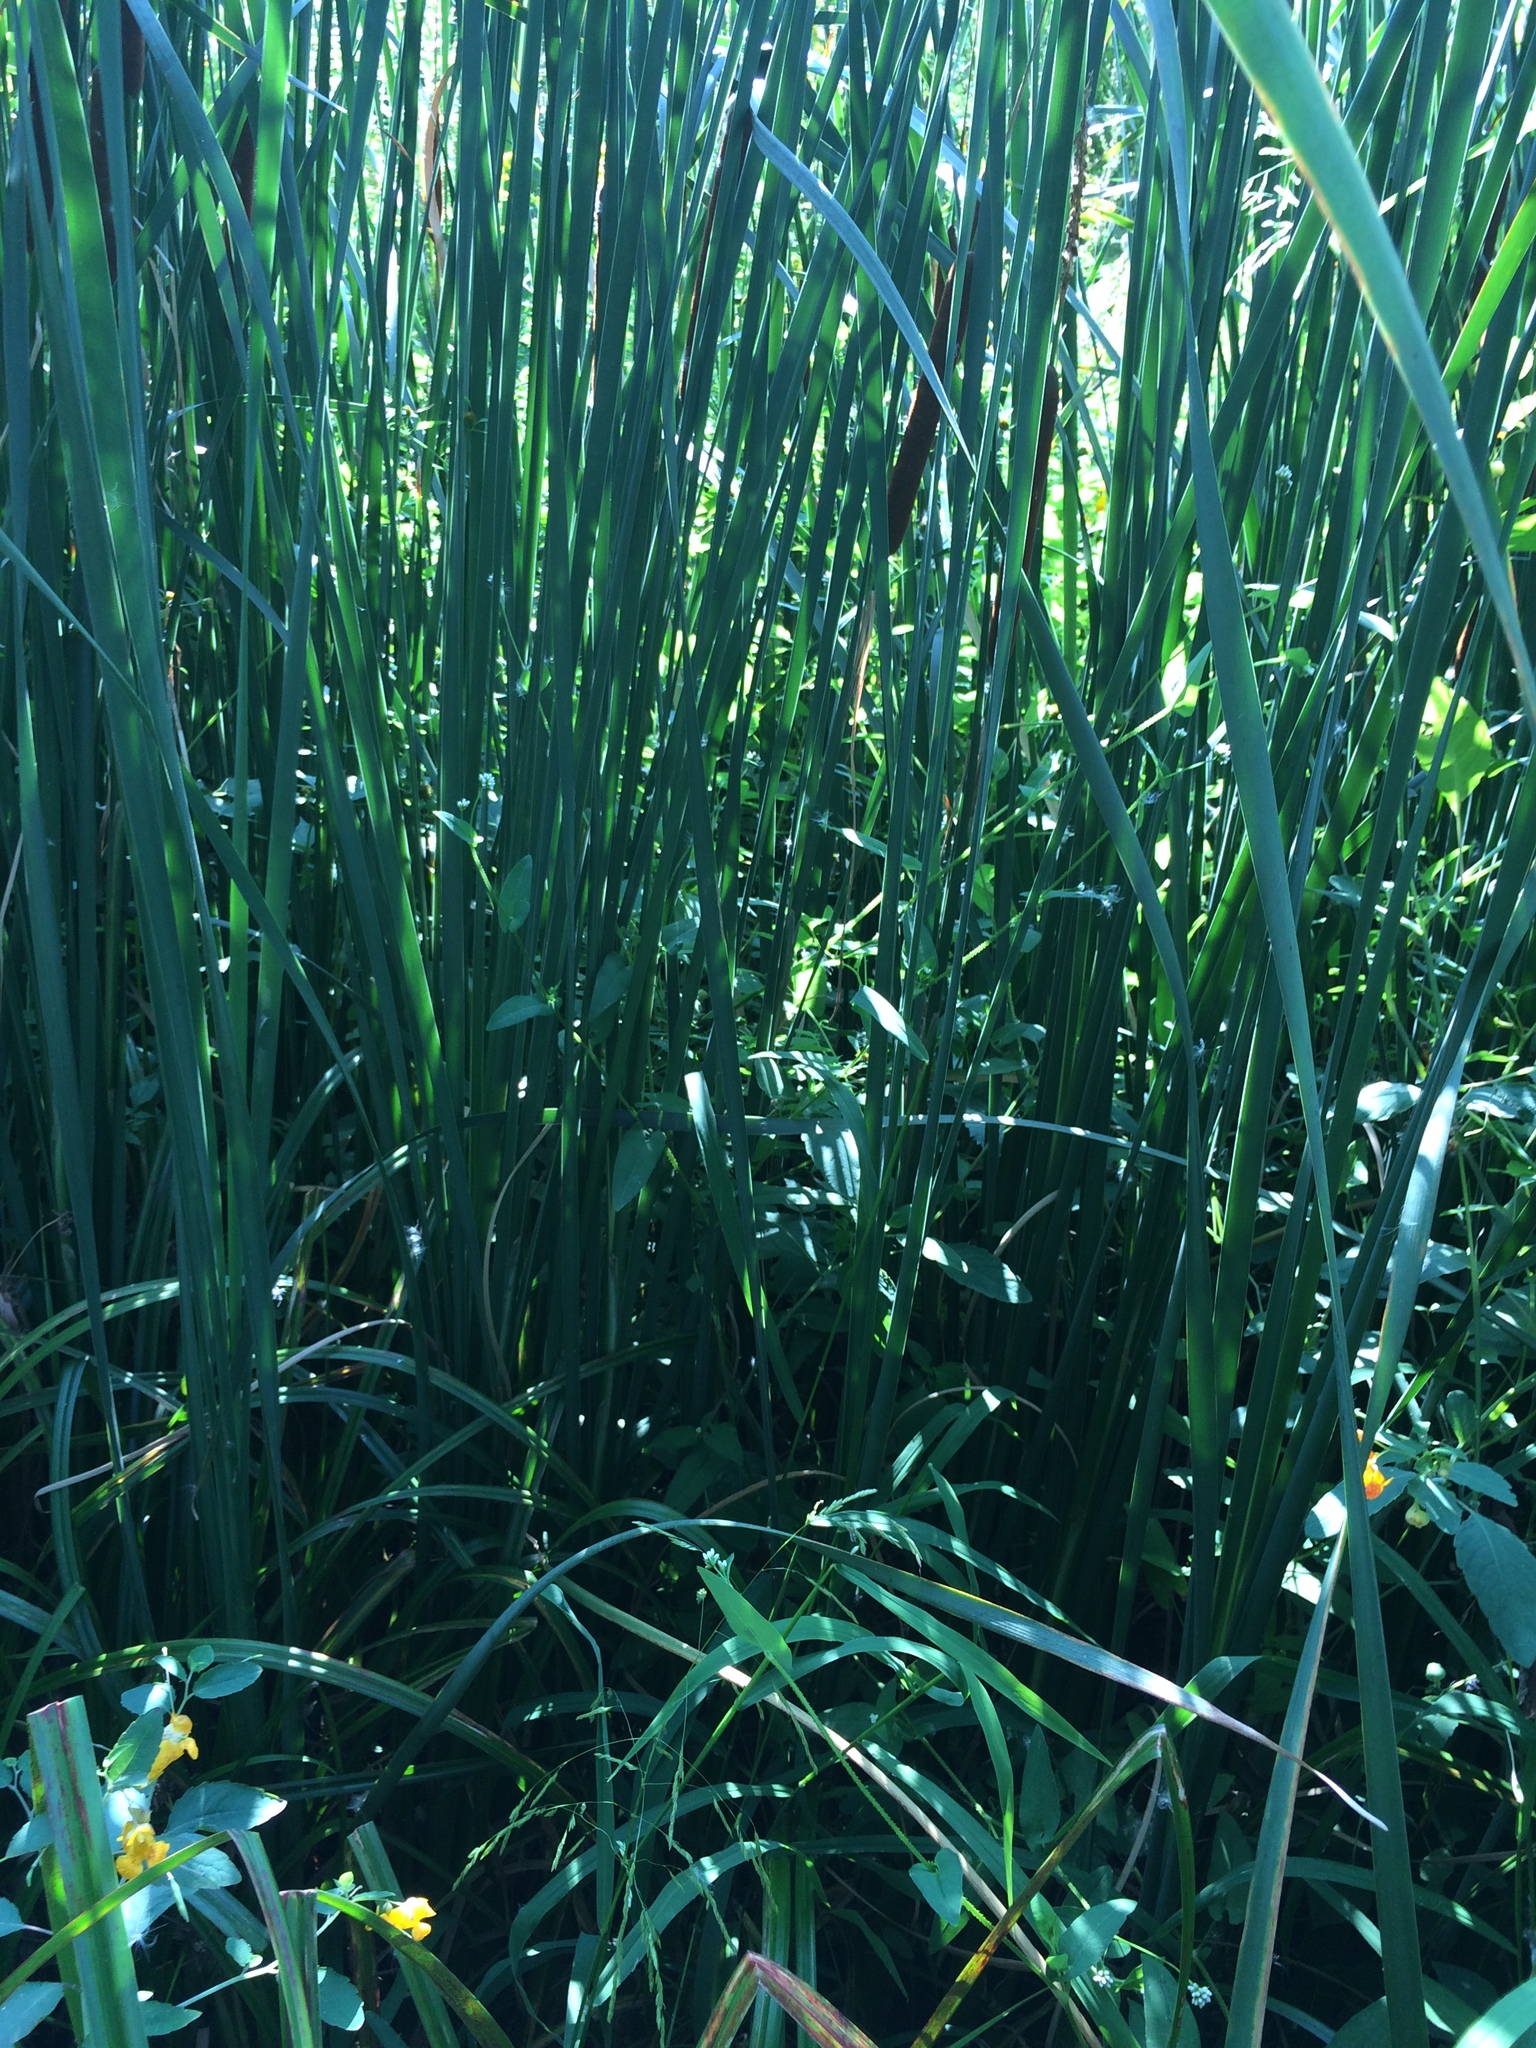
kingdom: Plantae
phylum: Tracheophyta
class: Magnoliopsida
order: Caryophyllales
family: Polygonaceae
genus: Persicaria
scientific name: Persicaria sagittata
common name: American tearthumb
